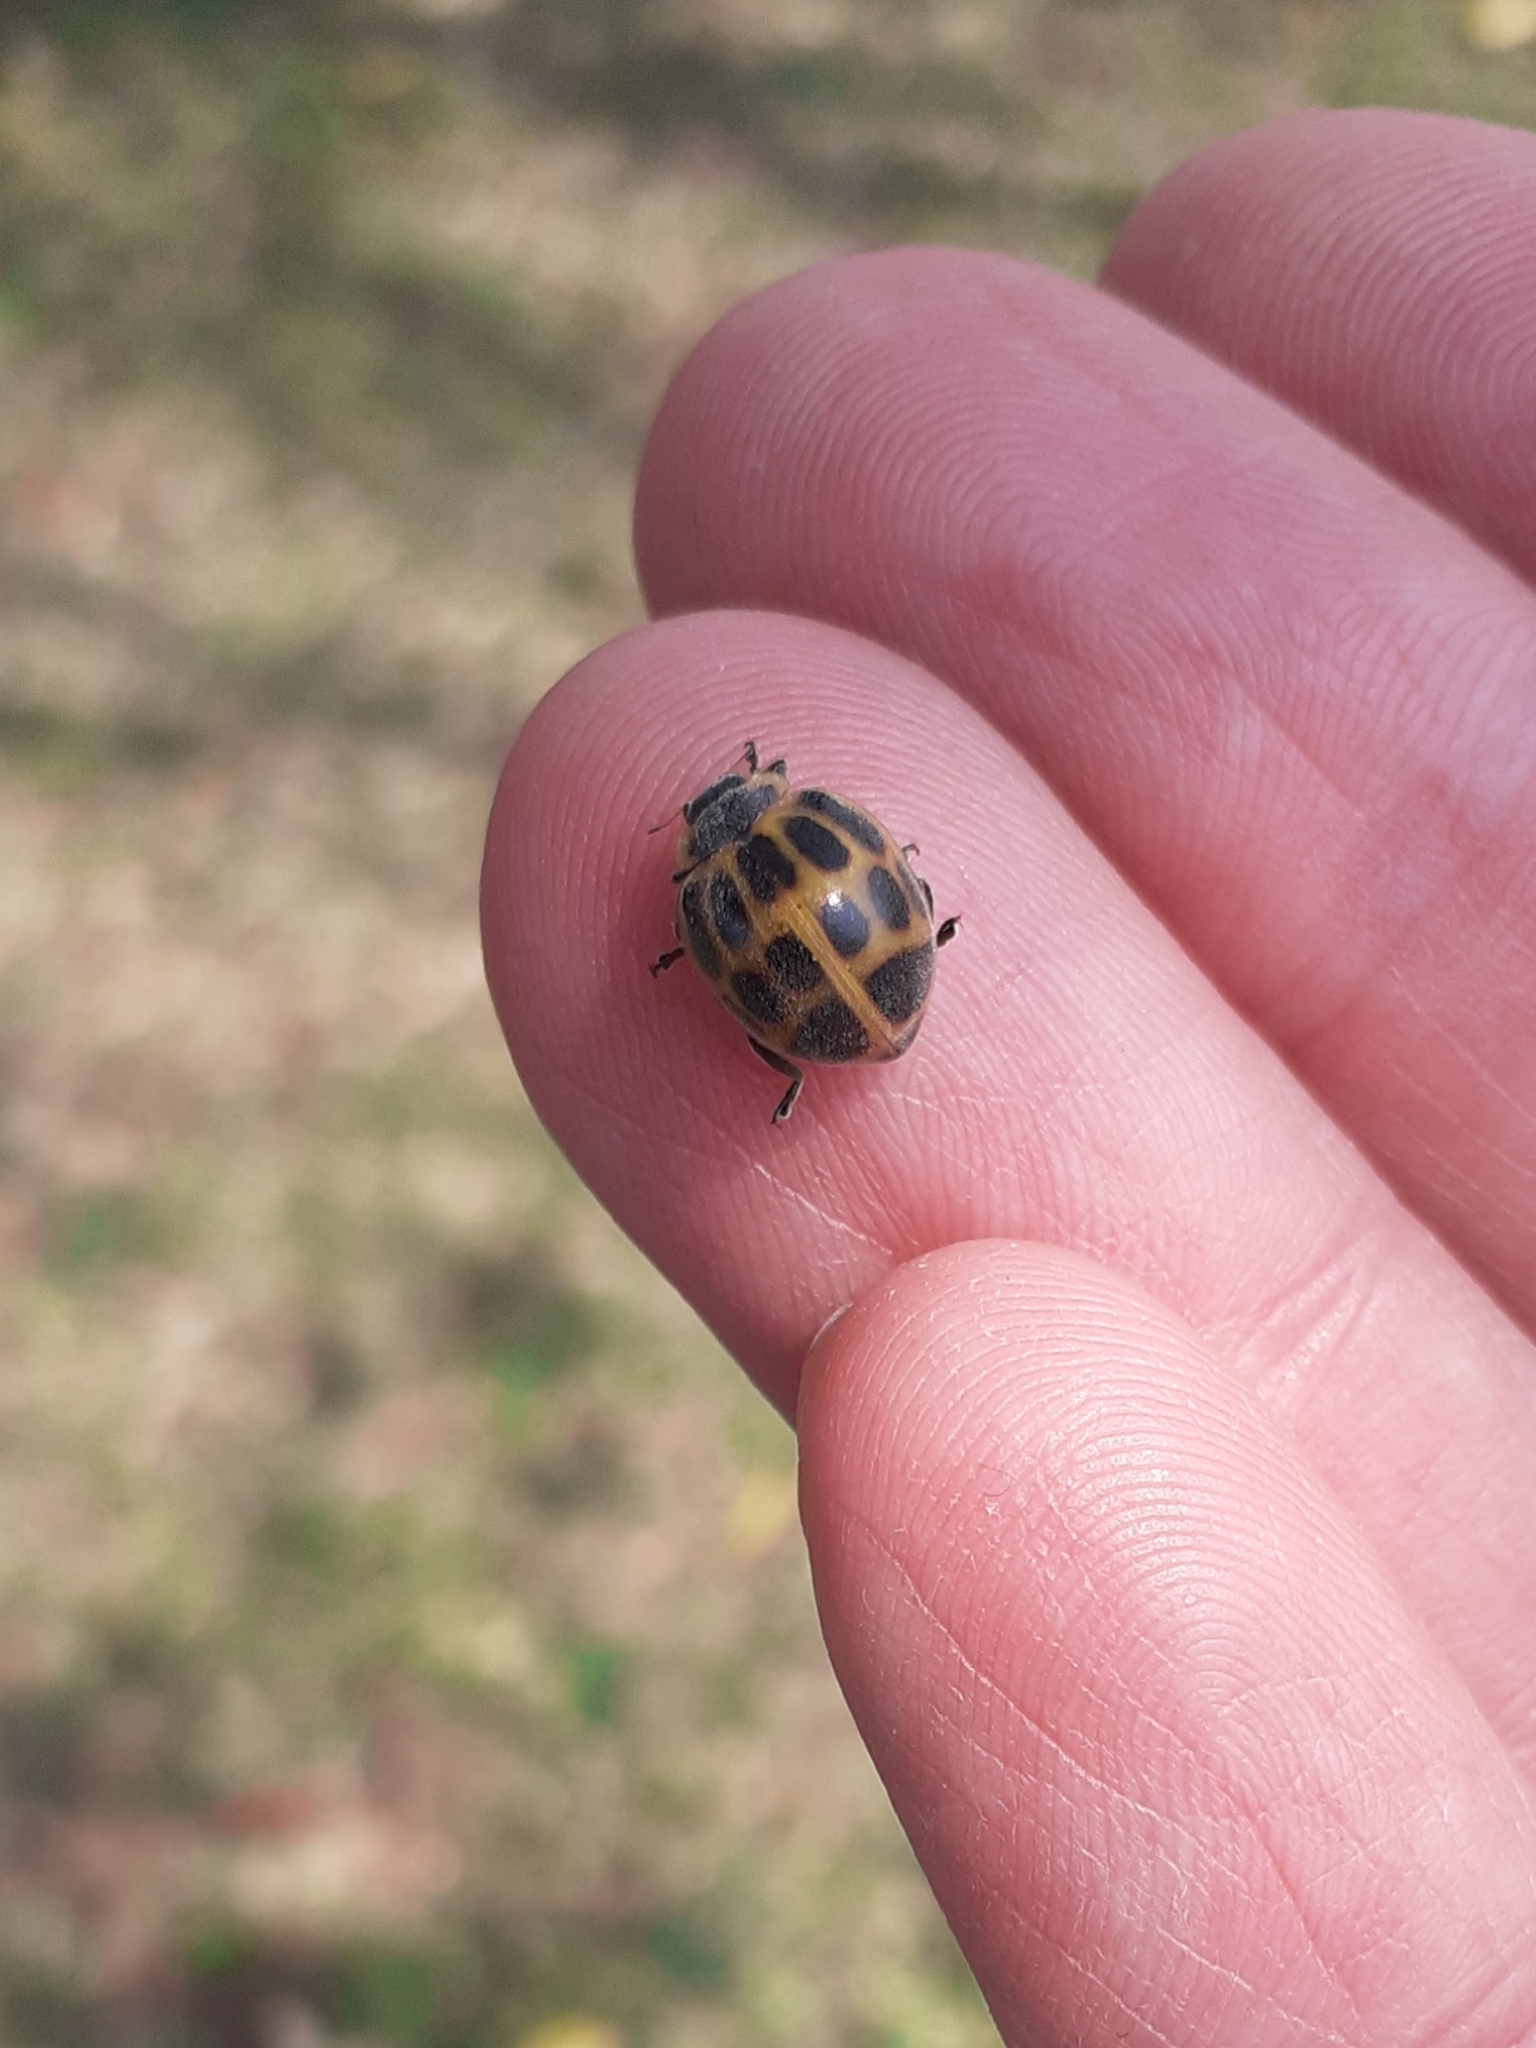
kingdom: Animalia
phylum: Arthropoda
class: Insecta
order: Coleoptera
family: Coccinellidae
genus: Epilachna
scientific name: Epilachna
